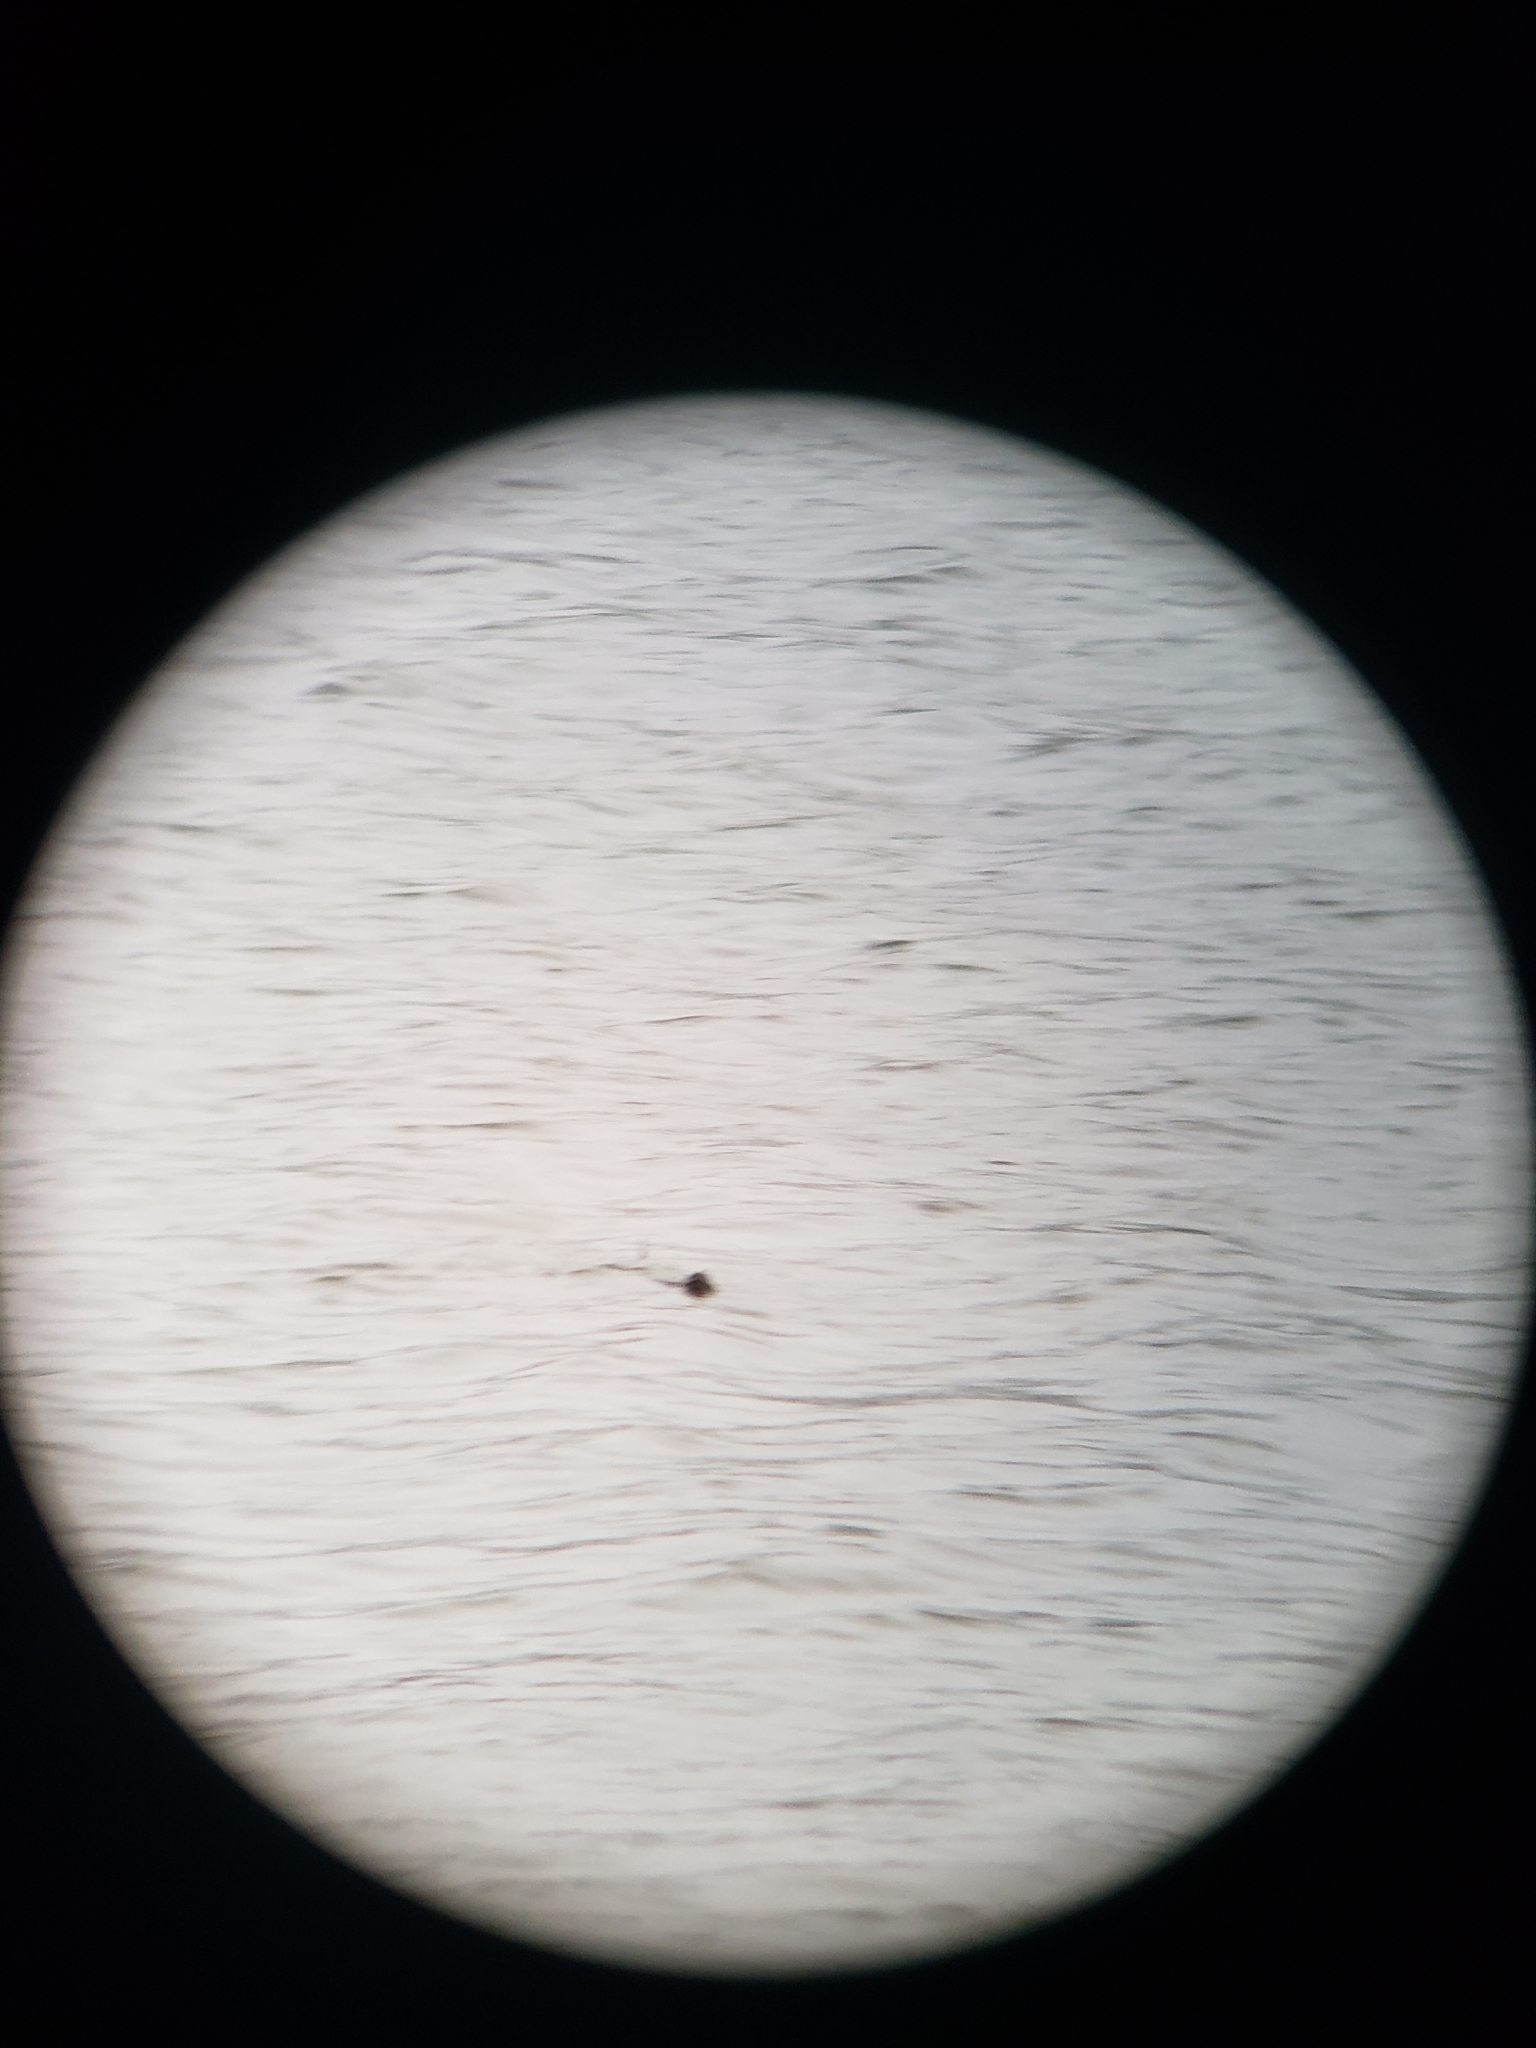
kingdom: Animalia
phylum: Chordata
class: Testudines
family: Chelydridae
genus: Chelydra
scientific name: Chelydra serpentina
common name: Common snapping turtle
